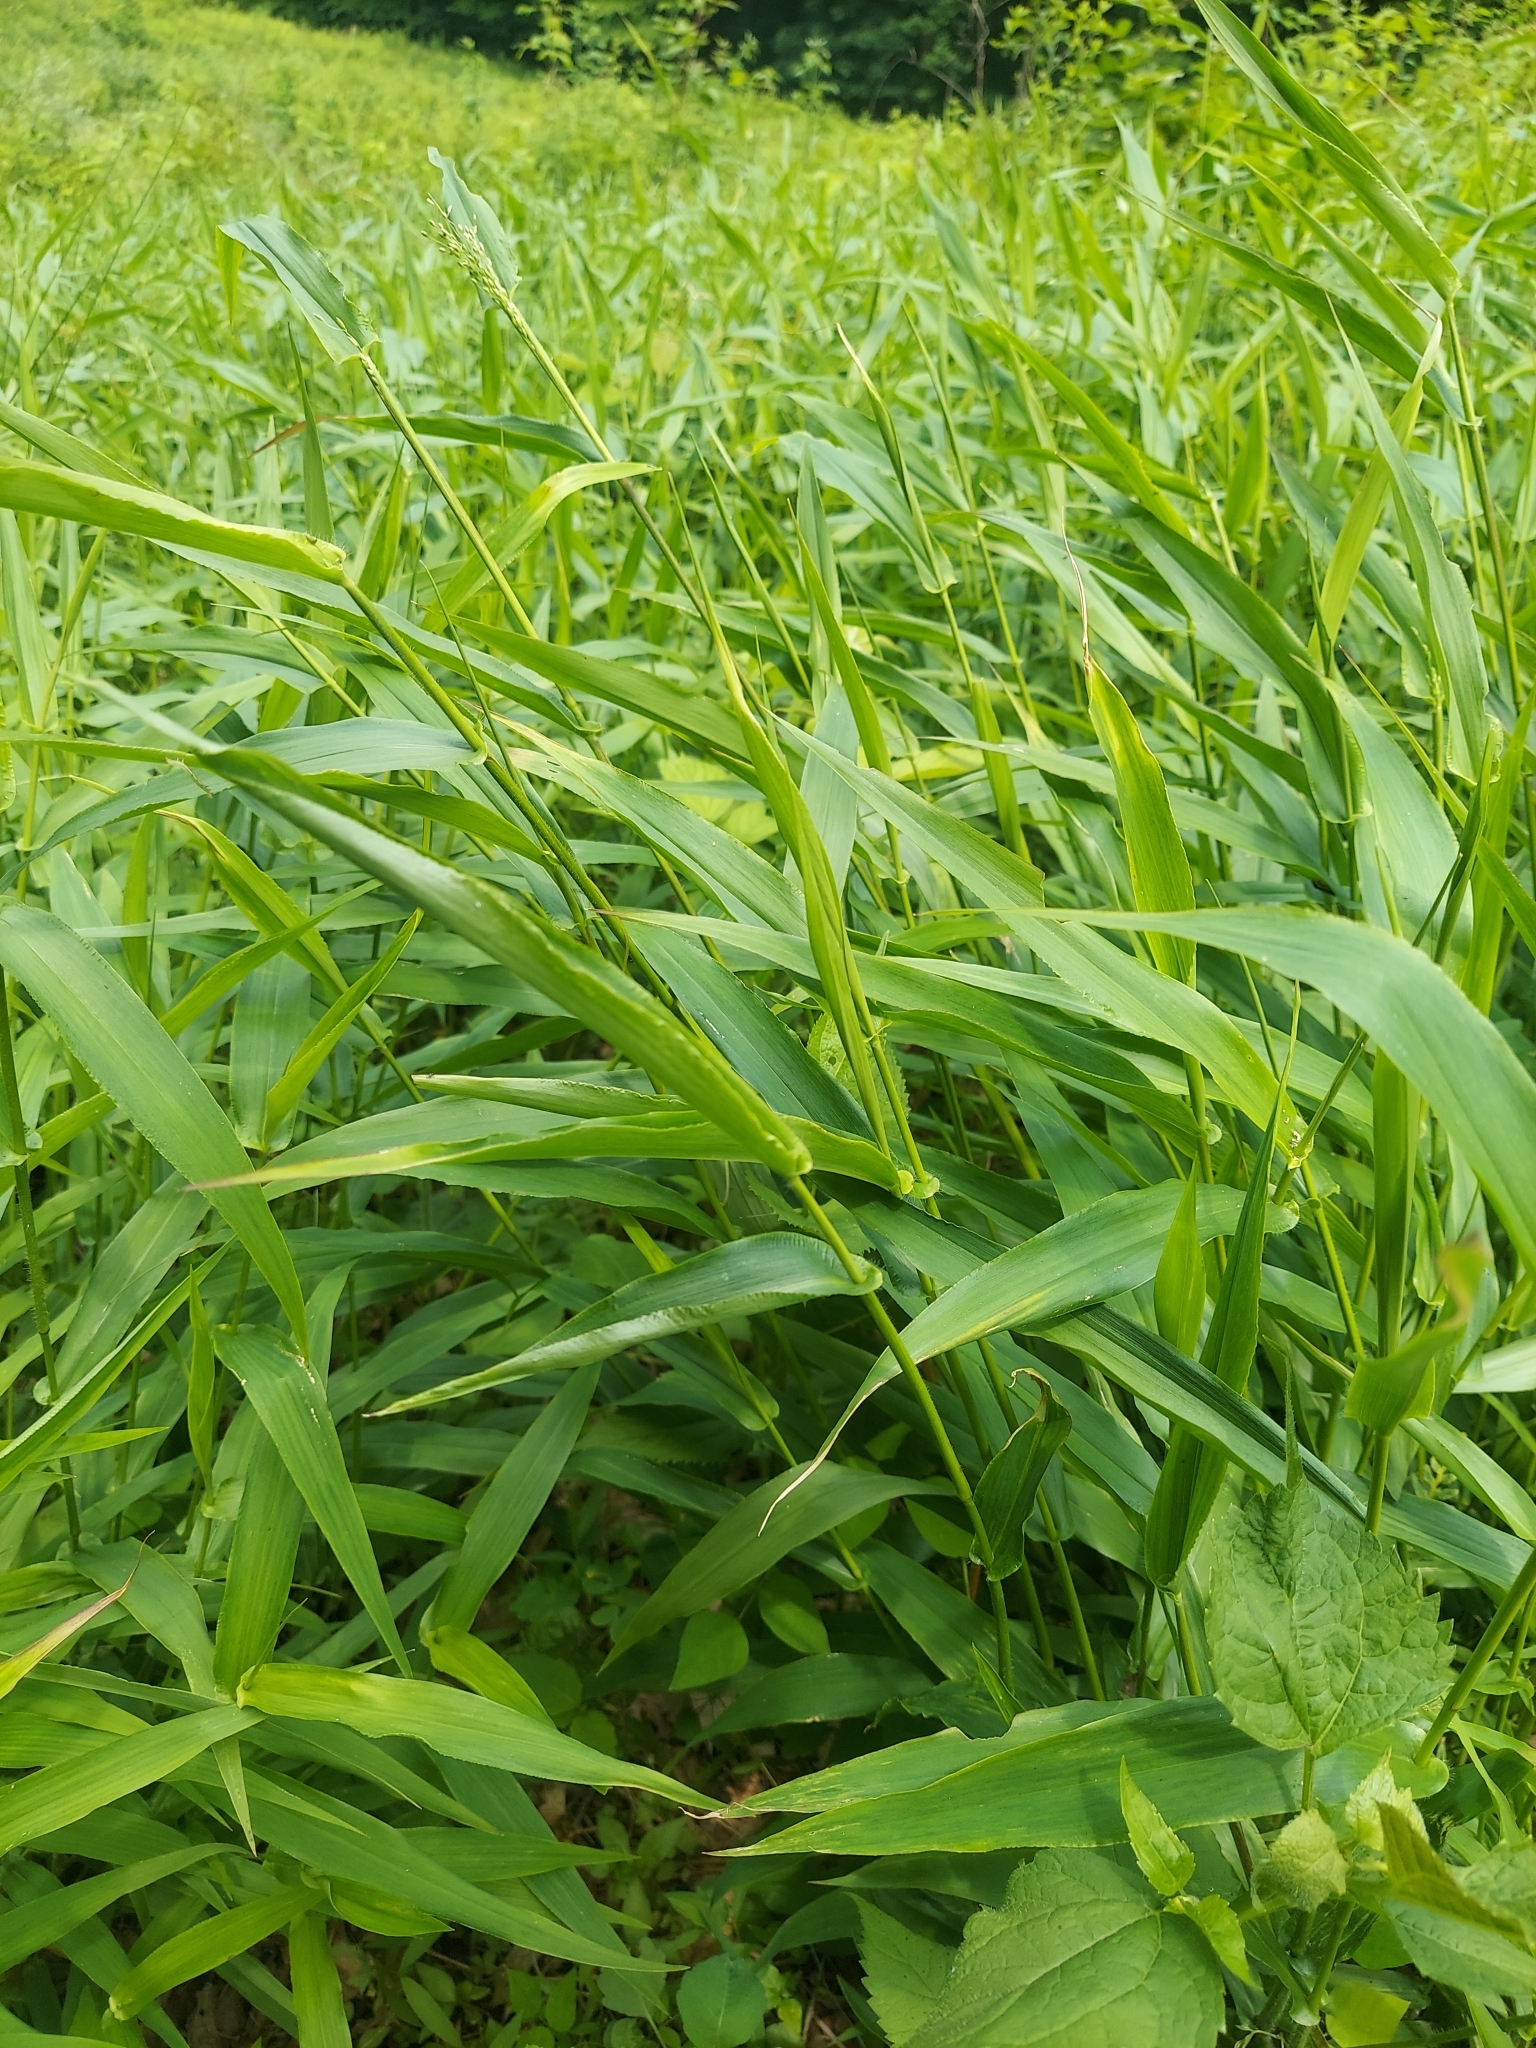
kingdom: Plantae
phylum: Tracheophyta
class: Liliopsida
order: Poales
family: Poaceae
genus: Dichanthelium
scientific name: Dichanthelium clandestinum
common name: Deer-tongue grass
